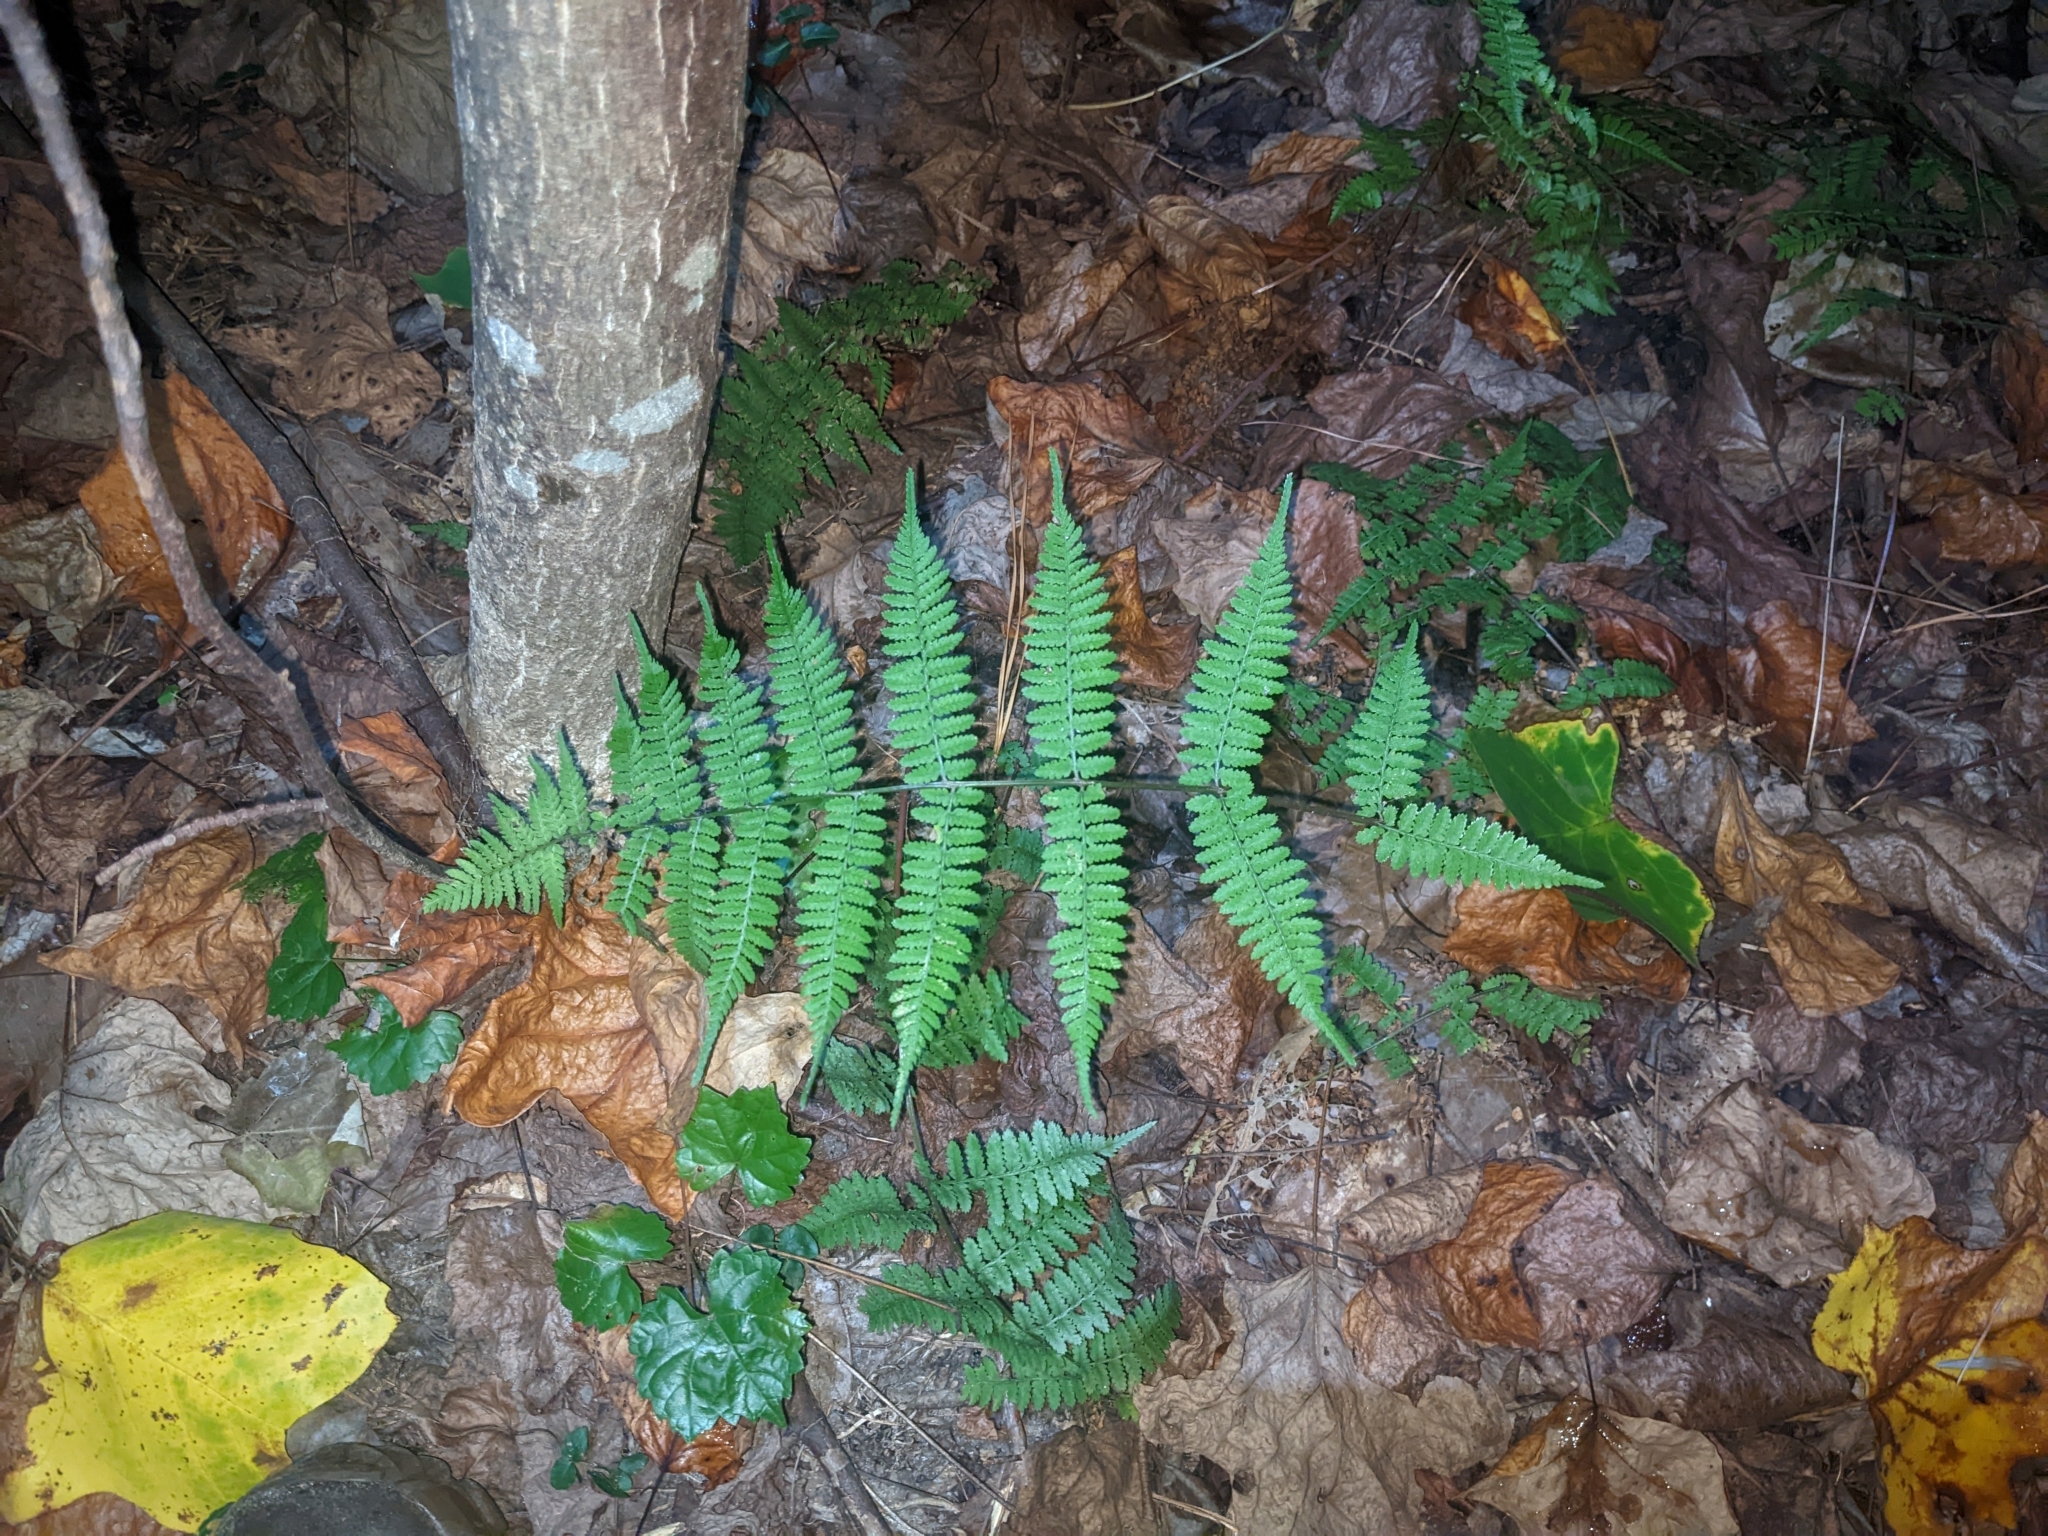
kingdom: Plantae
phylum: Tracheophyta
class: Polypodiopsida
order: Polypodiales
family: Athyriaceae
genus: Athyrium
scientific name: Athyrium asplenioides
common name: Southern lady fern
